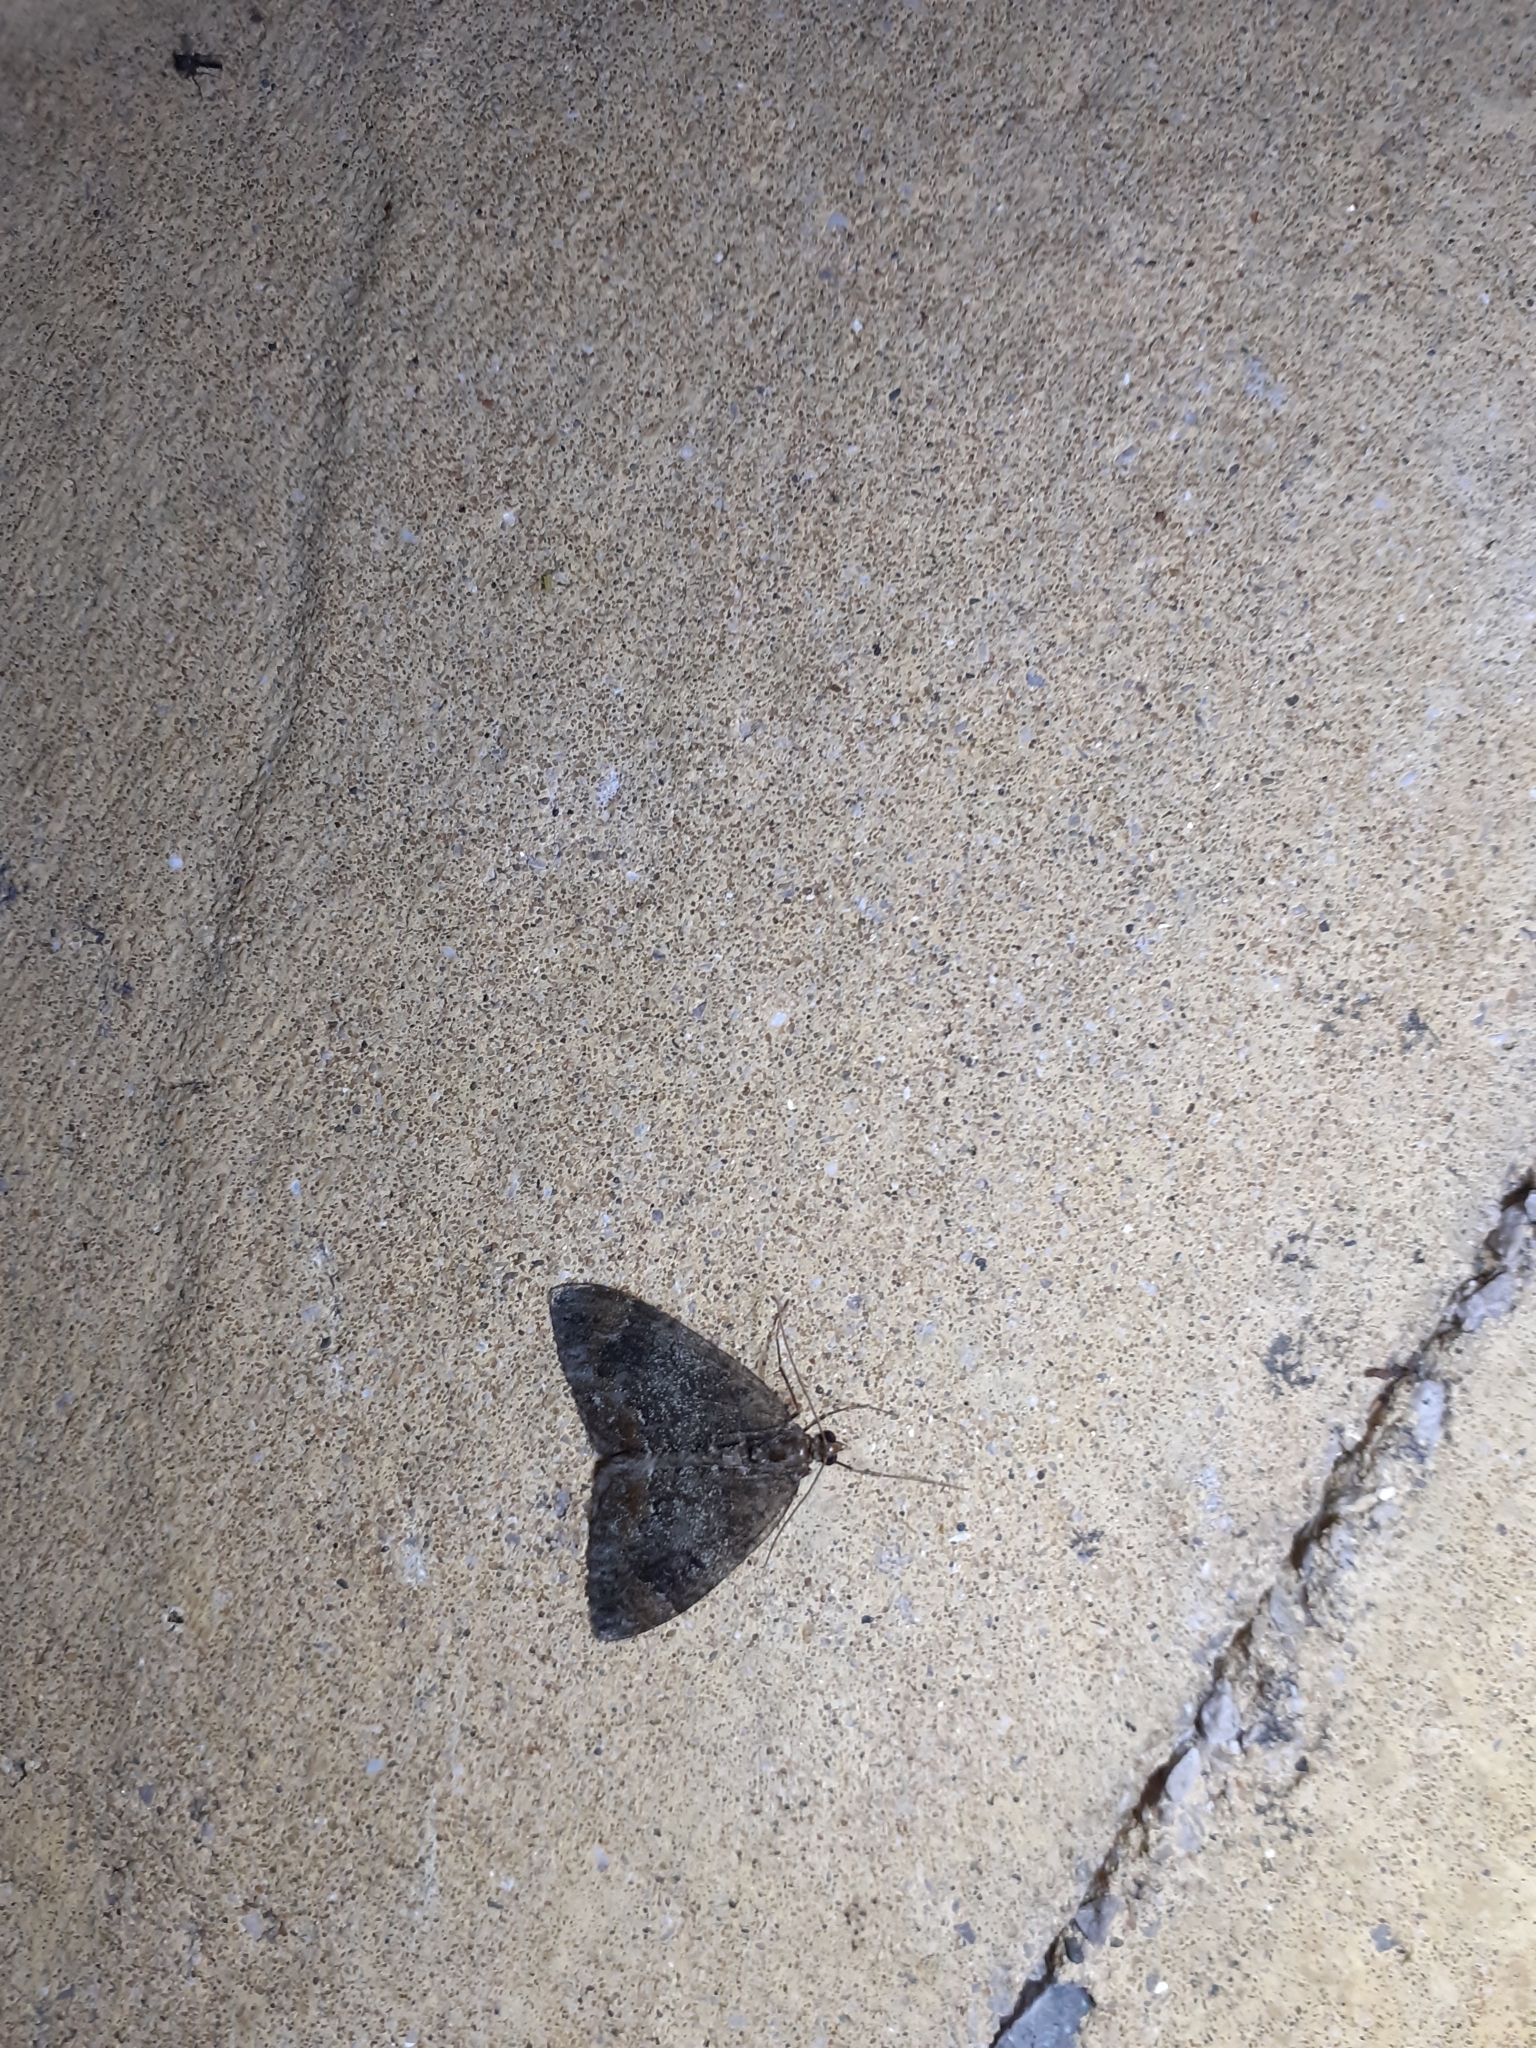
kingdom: Animalia
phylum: Arthropoda
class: Insecta
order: Lepidoptera
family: Geometridae
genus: Dysstroma
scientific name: Dysstroma truncata
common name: Common marbled carpet
